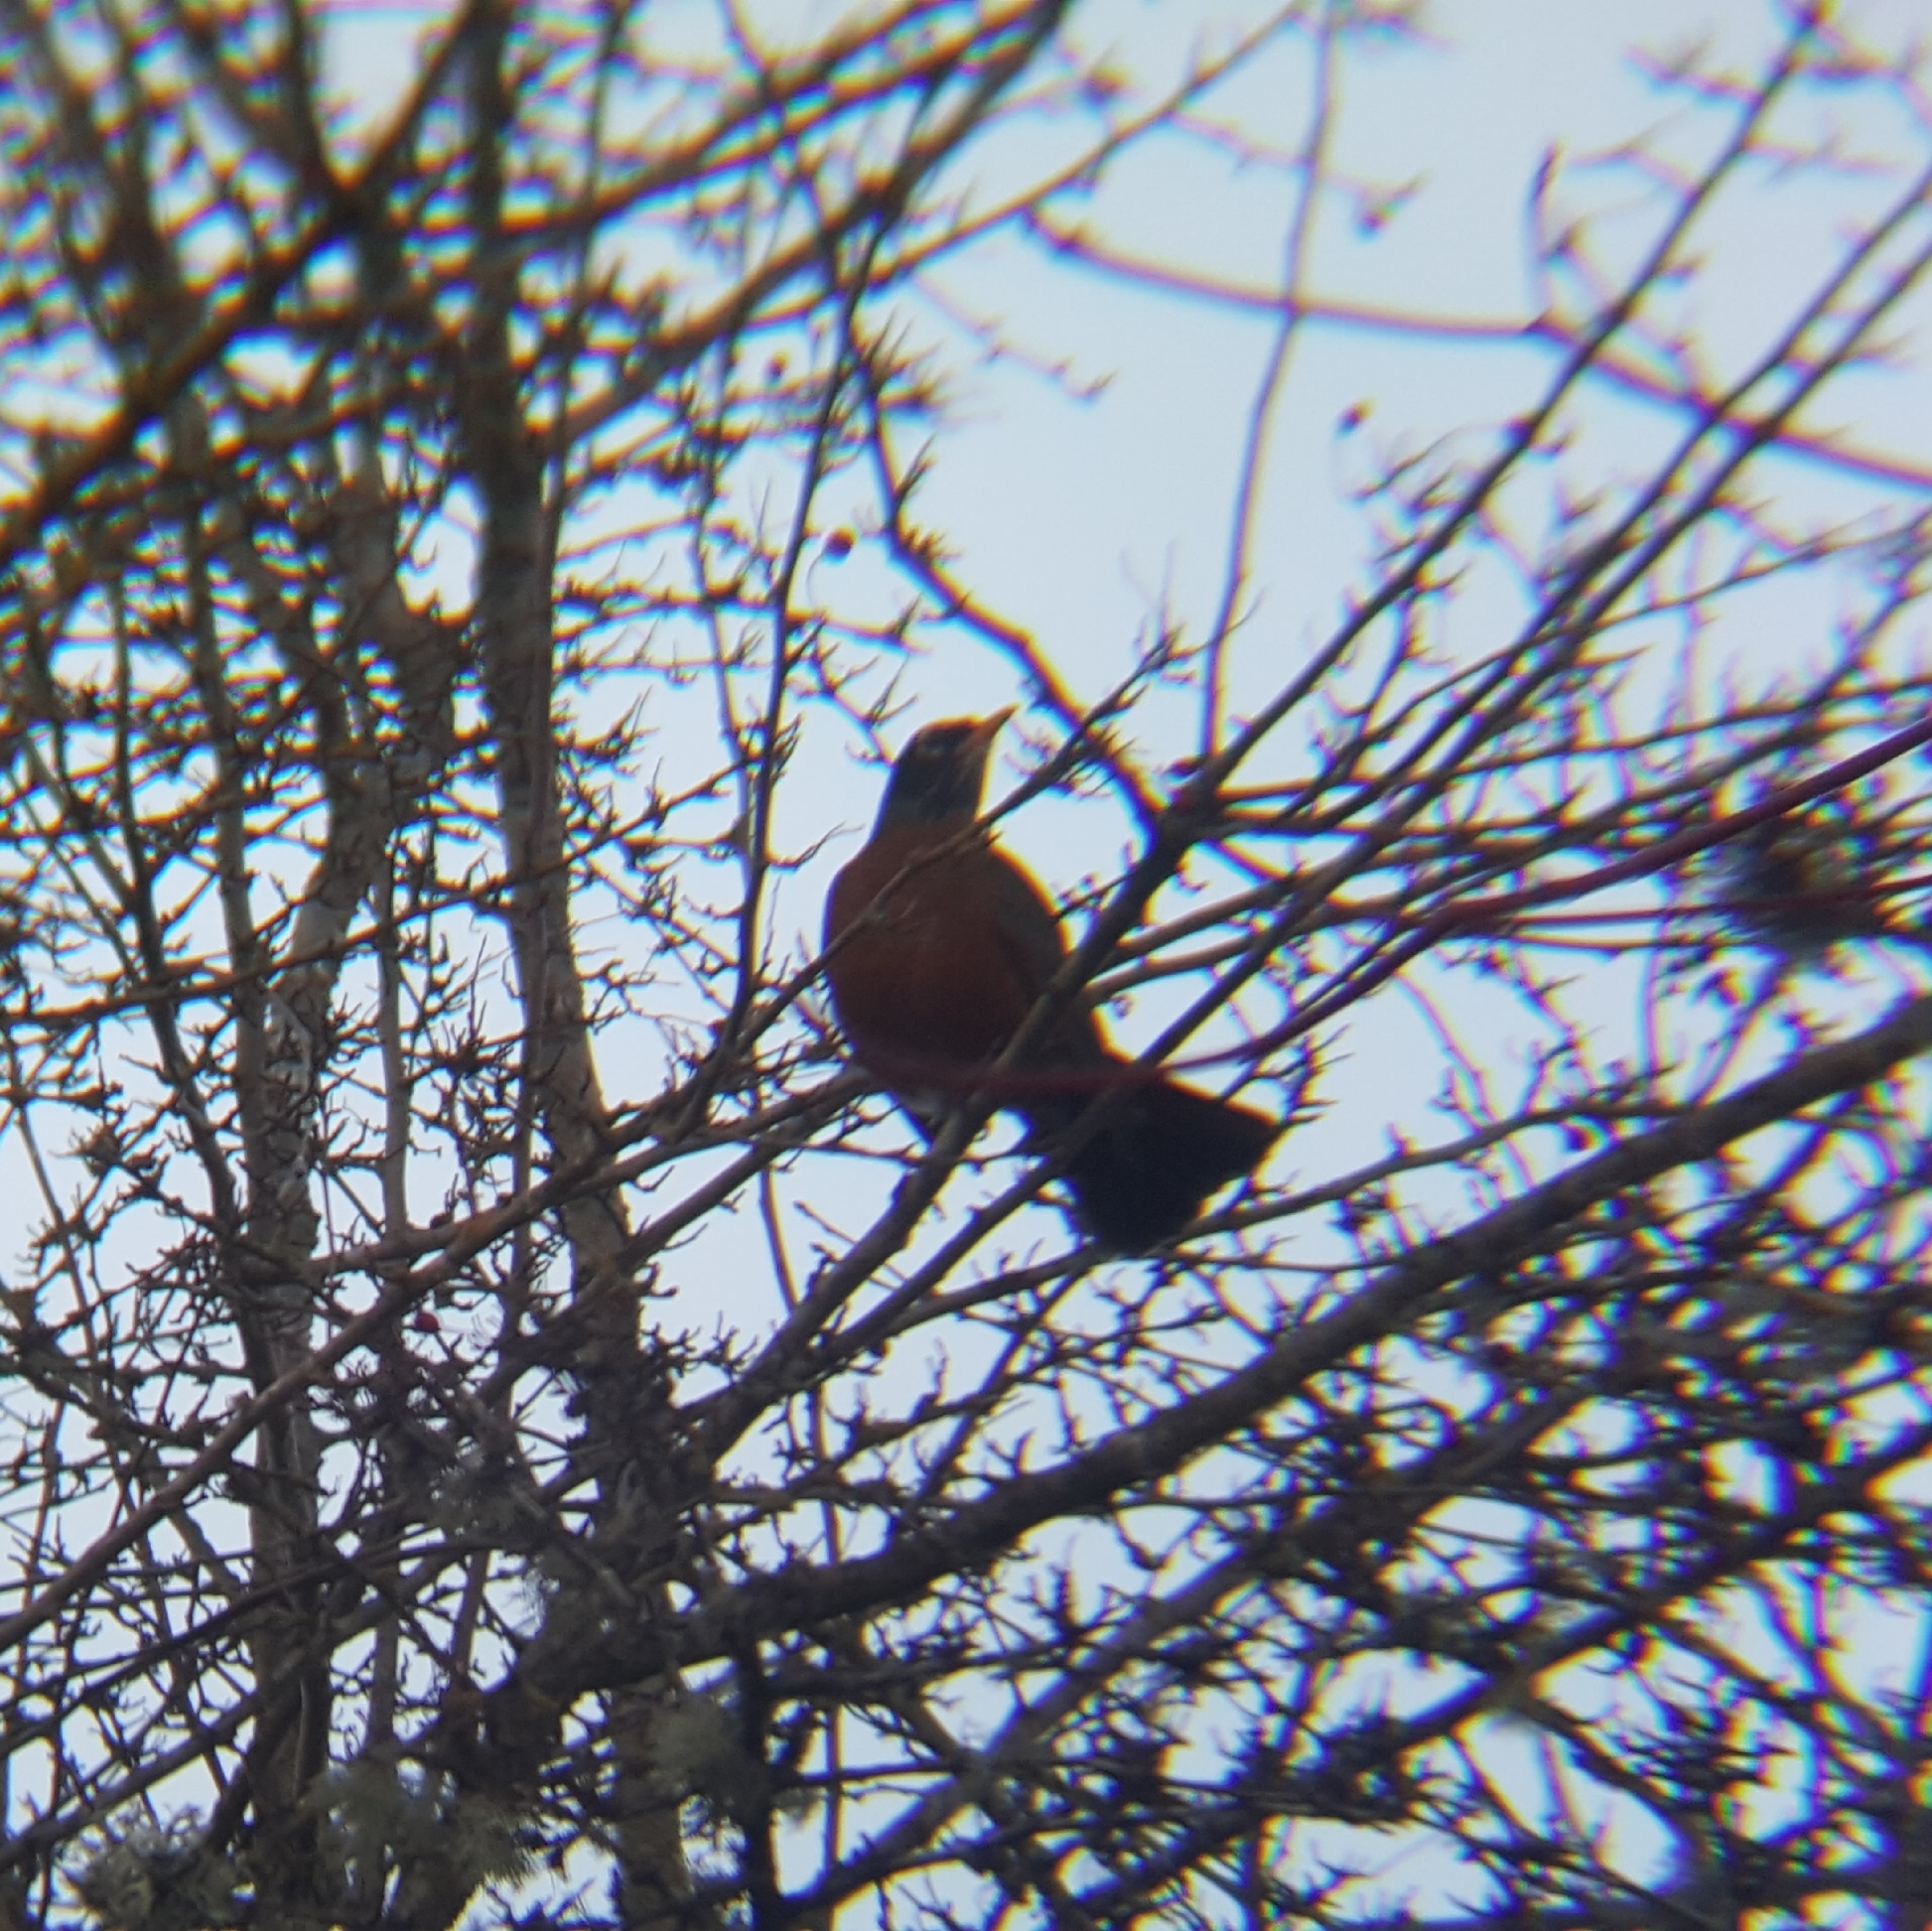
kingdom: Animalia
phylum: Chordata
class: Aves
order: Passeriformes
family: Turdidae
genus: Turdus
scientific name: Turdus migratorius
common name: American robin
